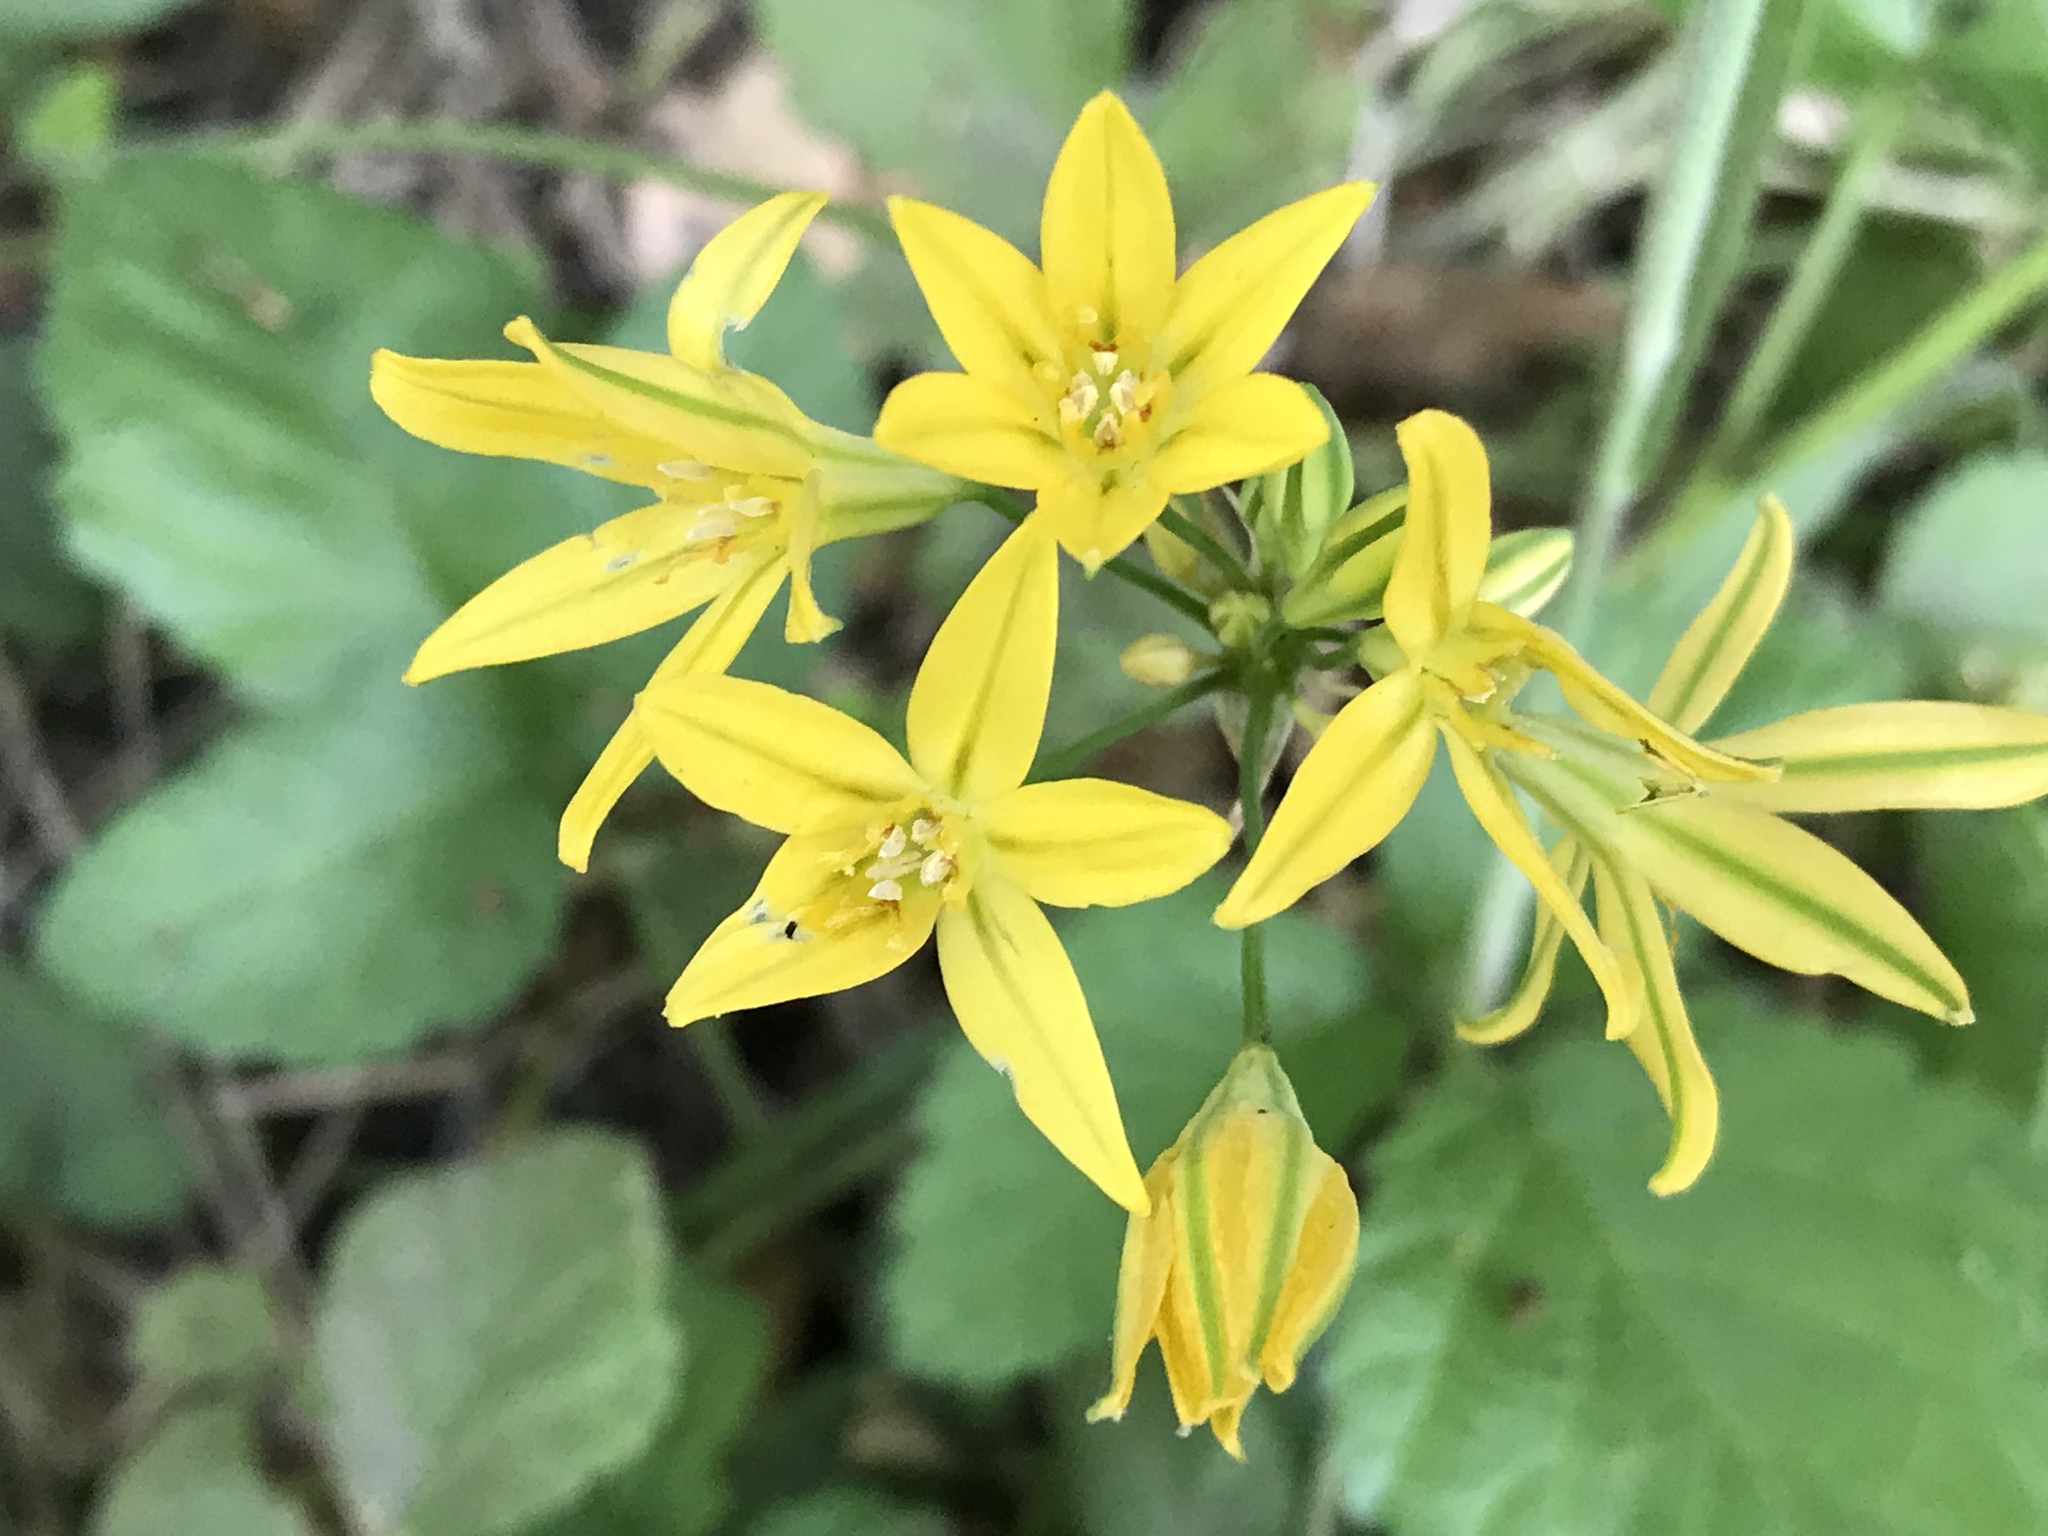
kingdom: Plantae
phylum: Tracheophyta
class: Liliopsida
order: Asparagales
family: Asparagaceae
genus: Triteleia
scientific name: Triteleia ixioides
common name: Yellow-brodiaea
